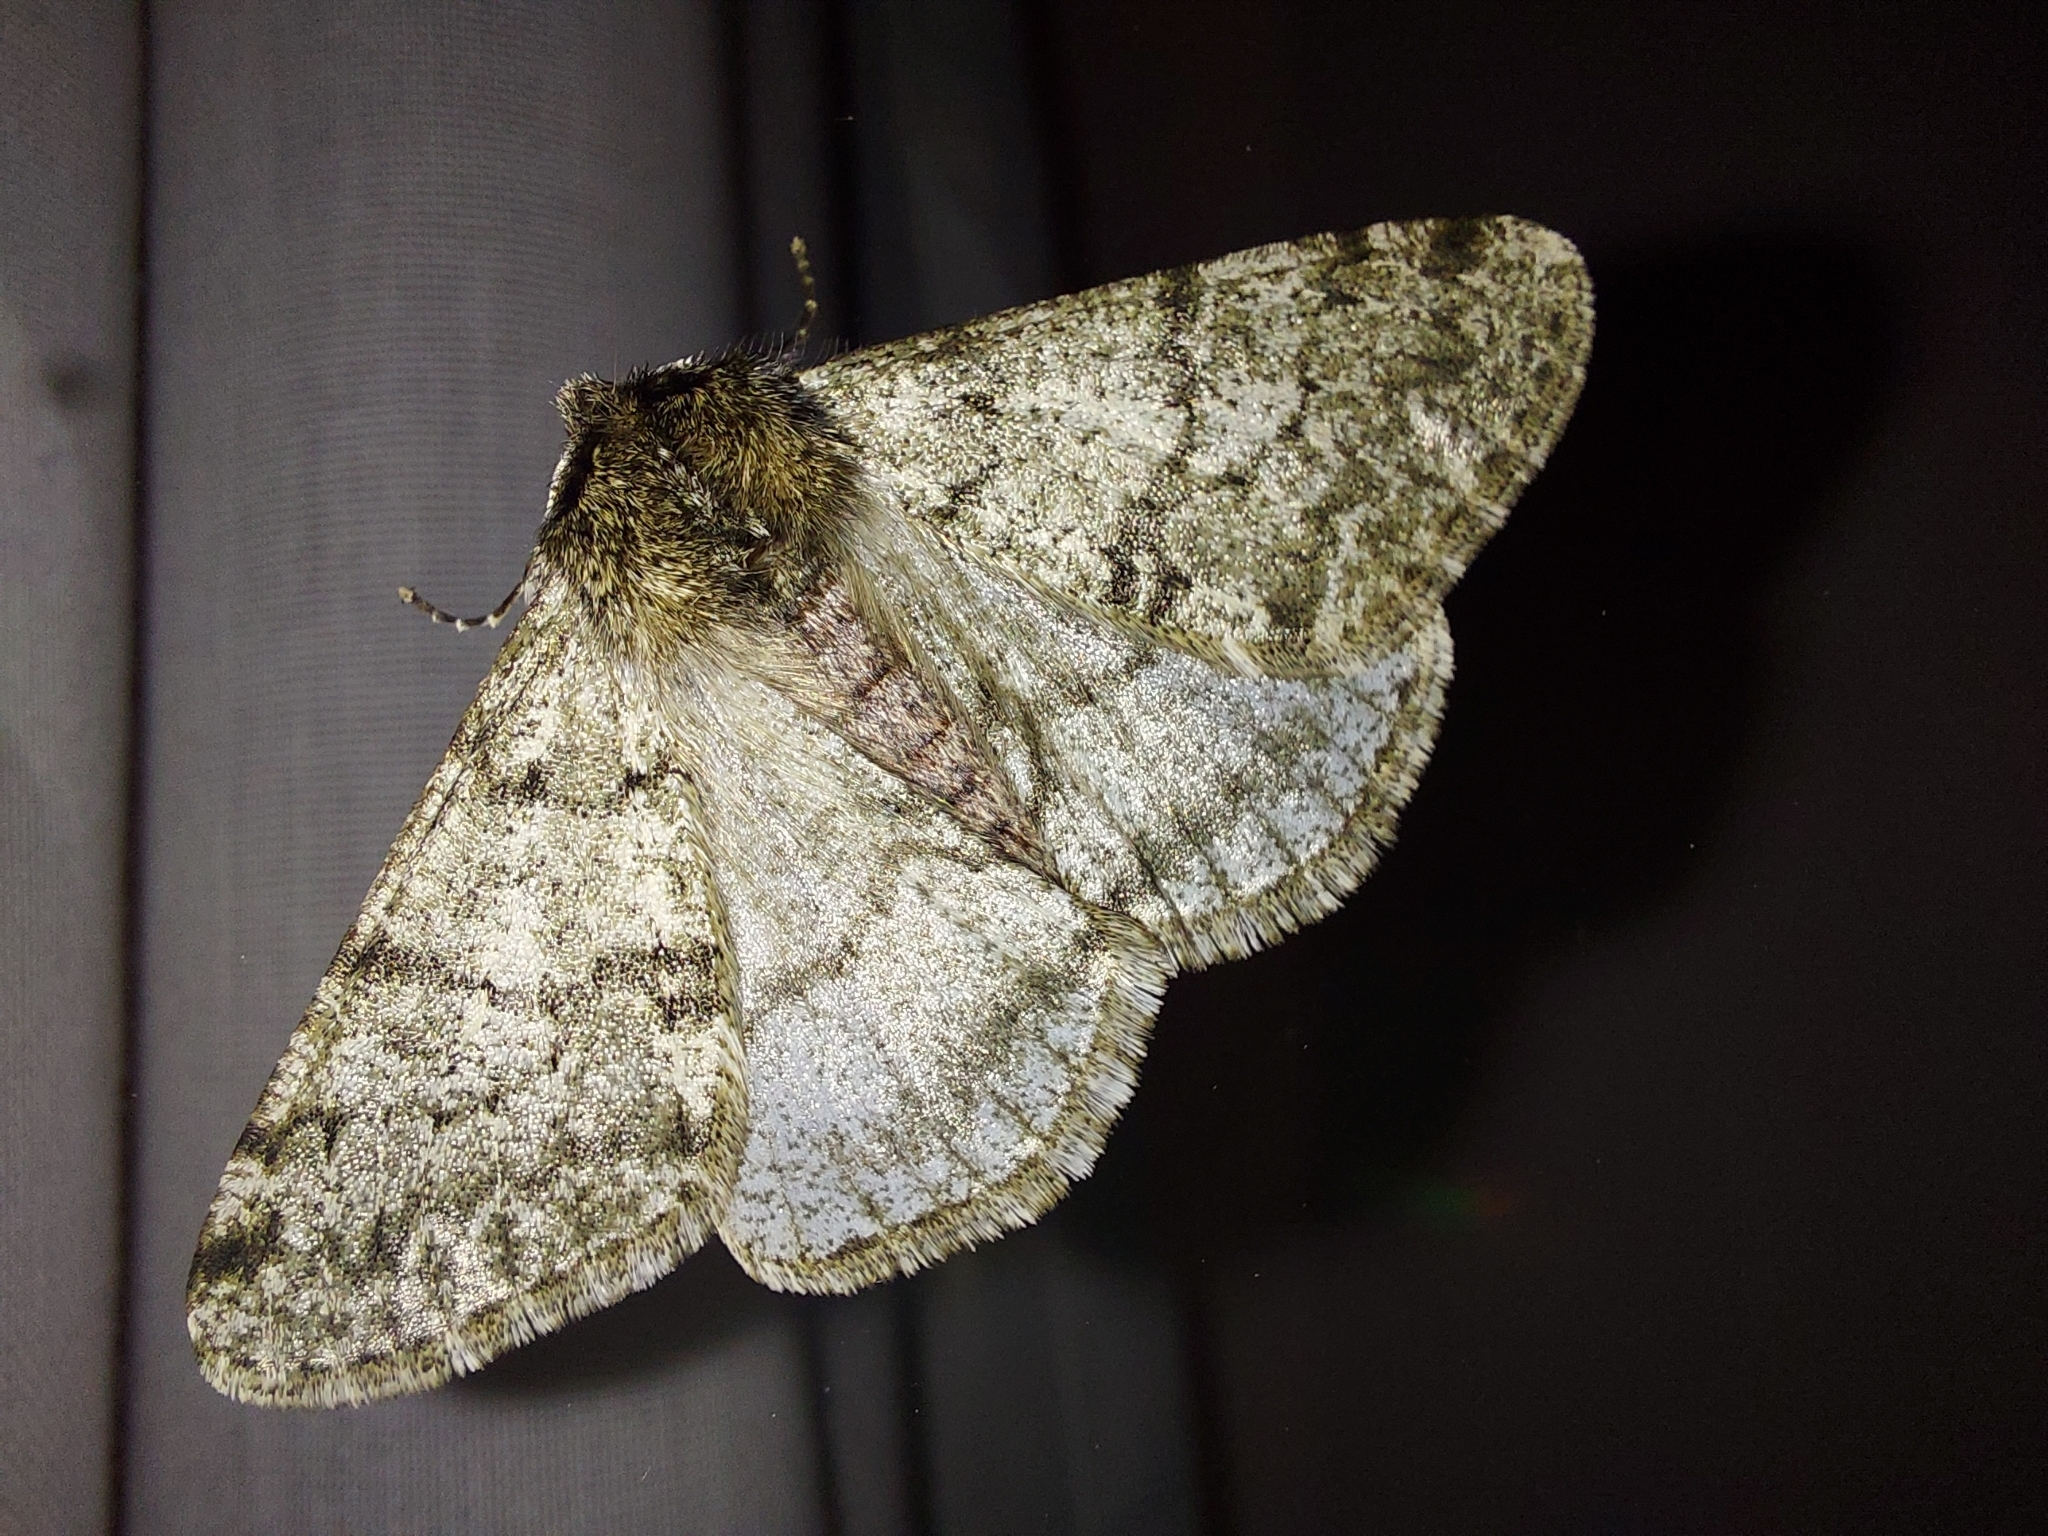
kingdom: Animalia
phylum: Arthropoda
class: Insecta
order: Lepidoptera
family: Geometridae
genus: Phigalia
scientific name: Phigalia pilosaria
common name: Pale brindled beauty
